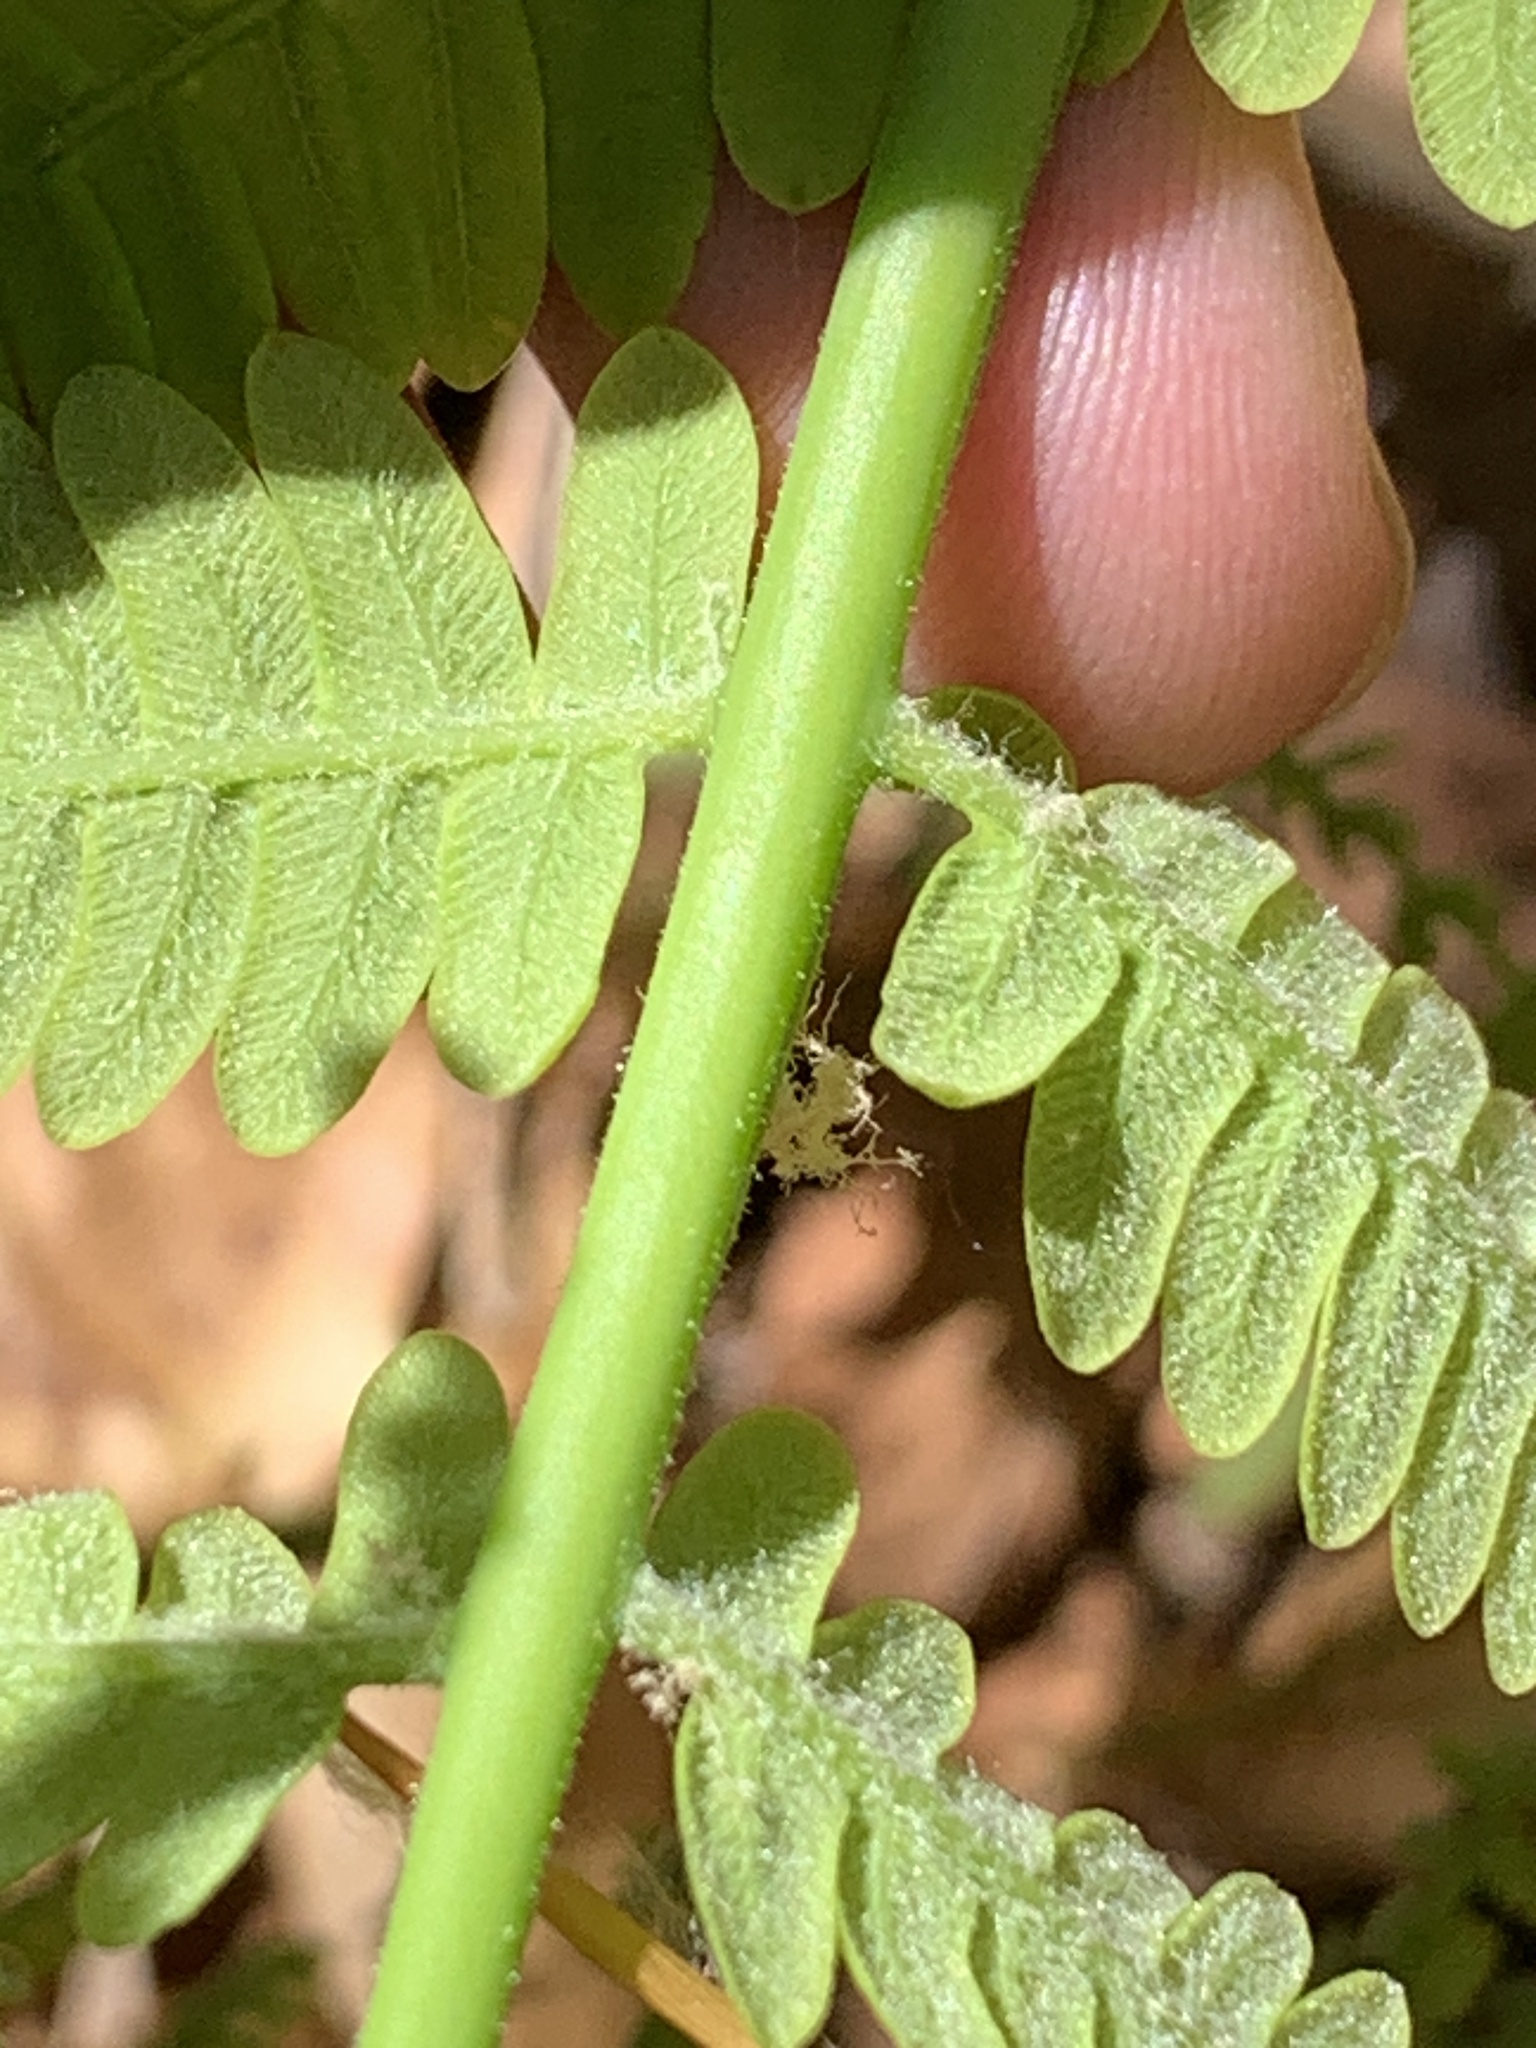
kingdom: Plantae
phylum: Tracheophyta
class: Polypodiopsida
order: Osmundales
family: Osmundaceae
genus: Claytosmunda
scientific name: Claytosmunda claytoniana
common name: Clayton's fern
